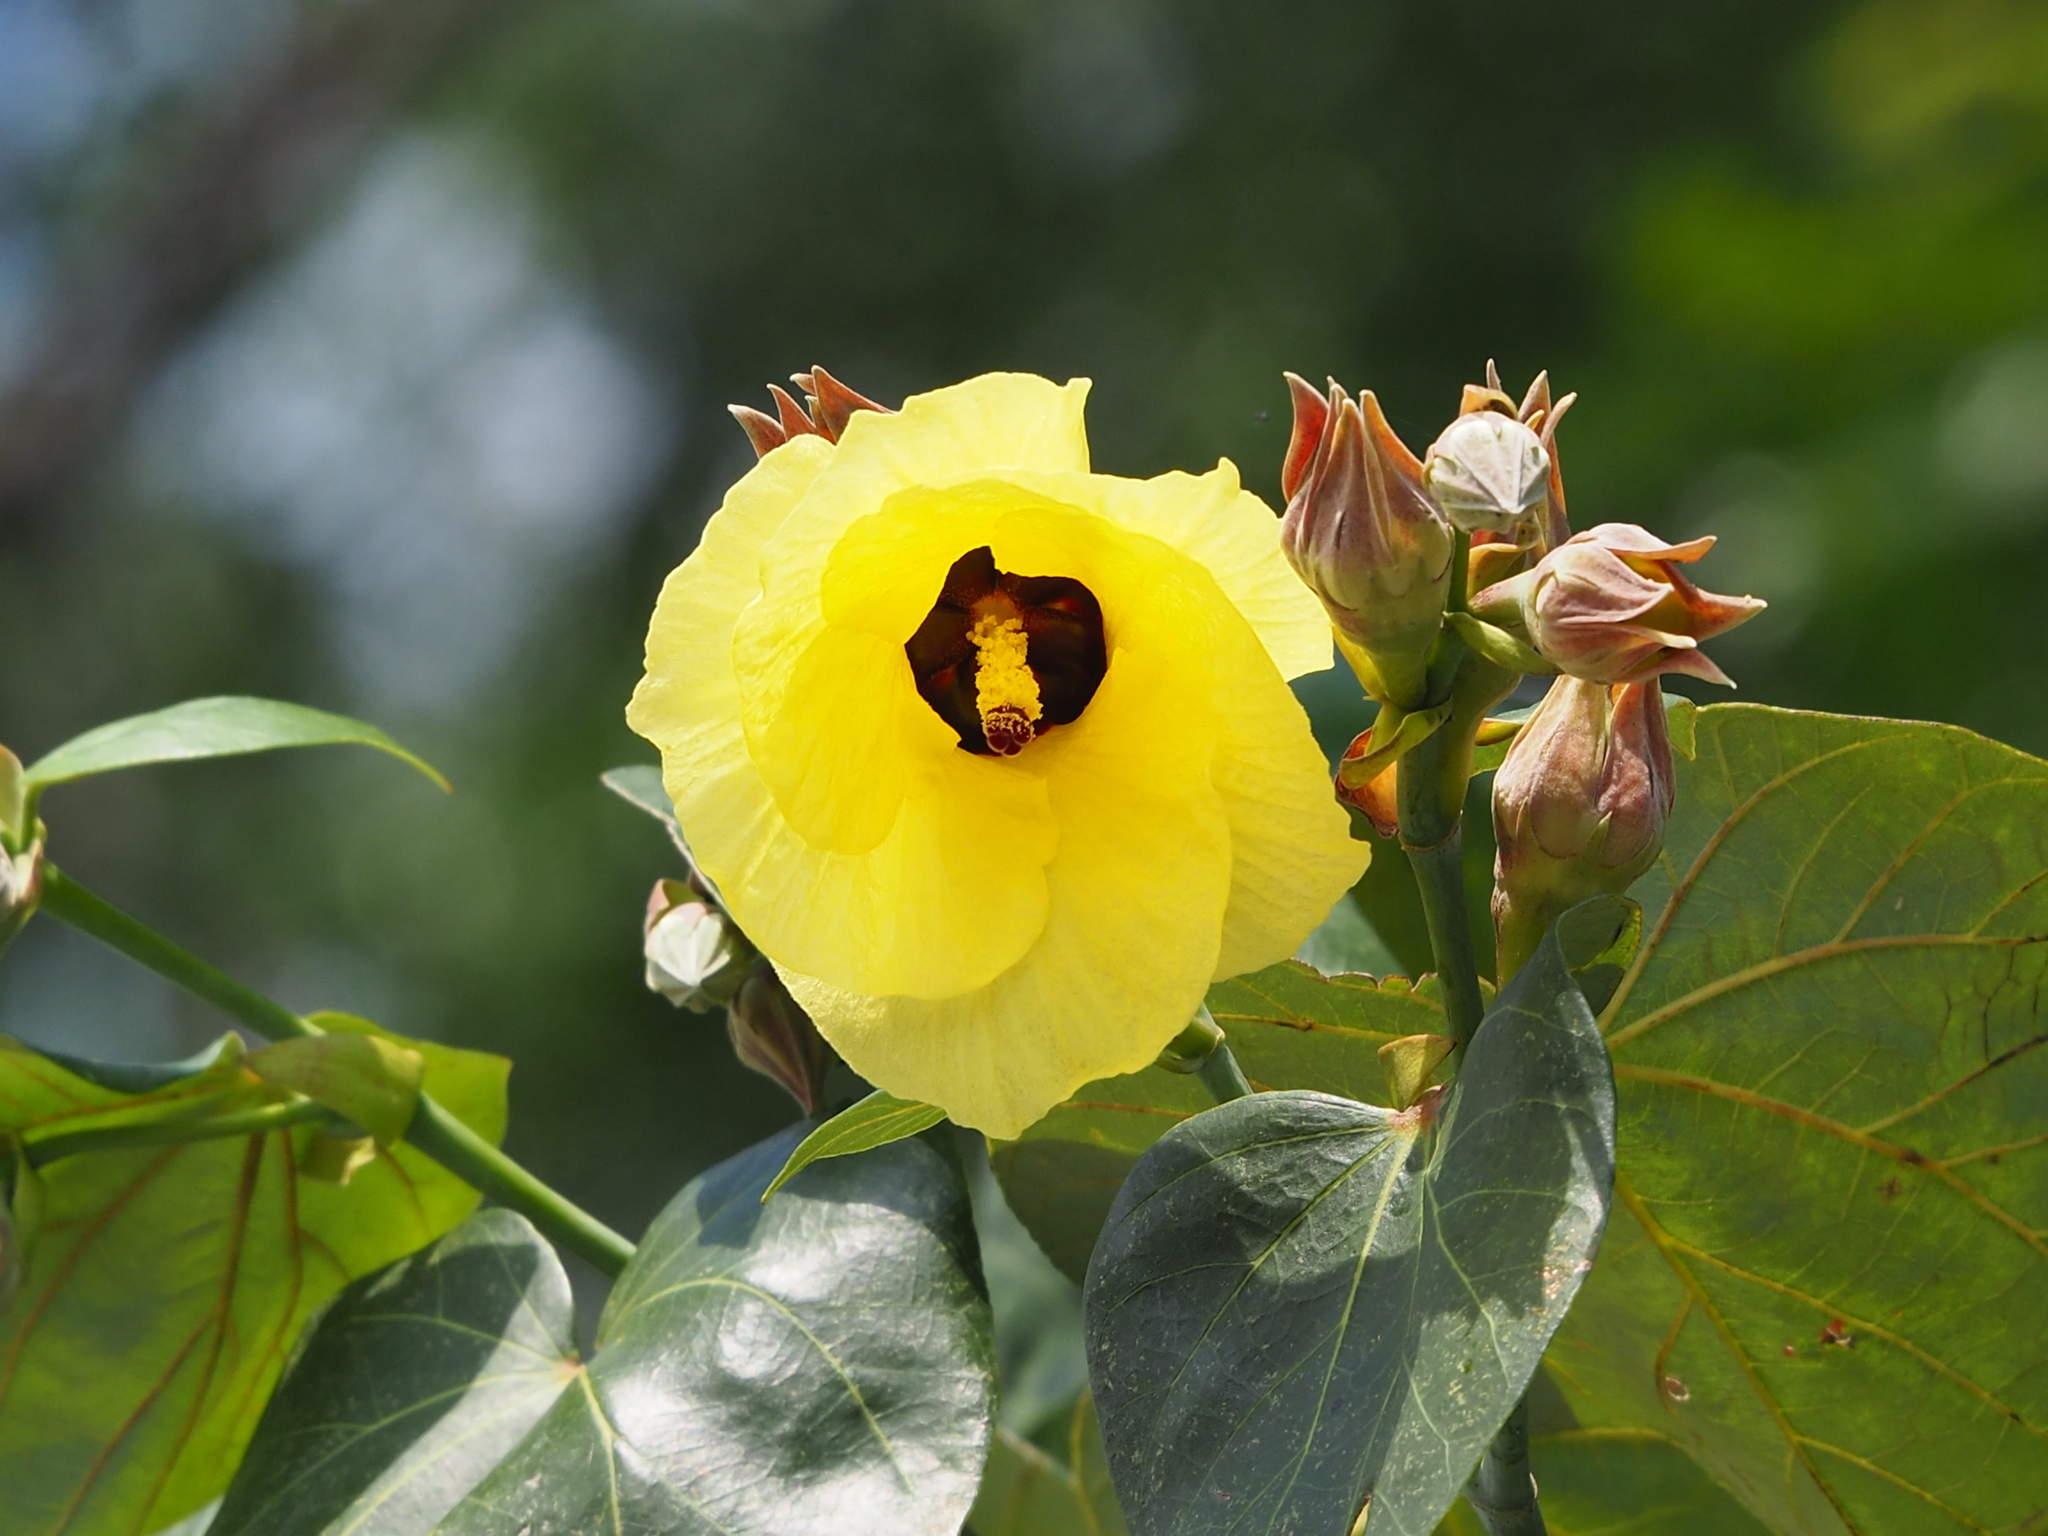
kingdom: Plantae
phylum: Tracheophyta
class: Magnoliopsida
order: Malvales
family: Malvaceae
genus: Talipariti
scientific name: Talipariti tiliaceum
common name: Sea hibiscus
